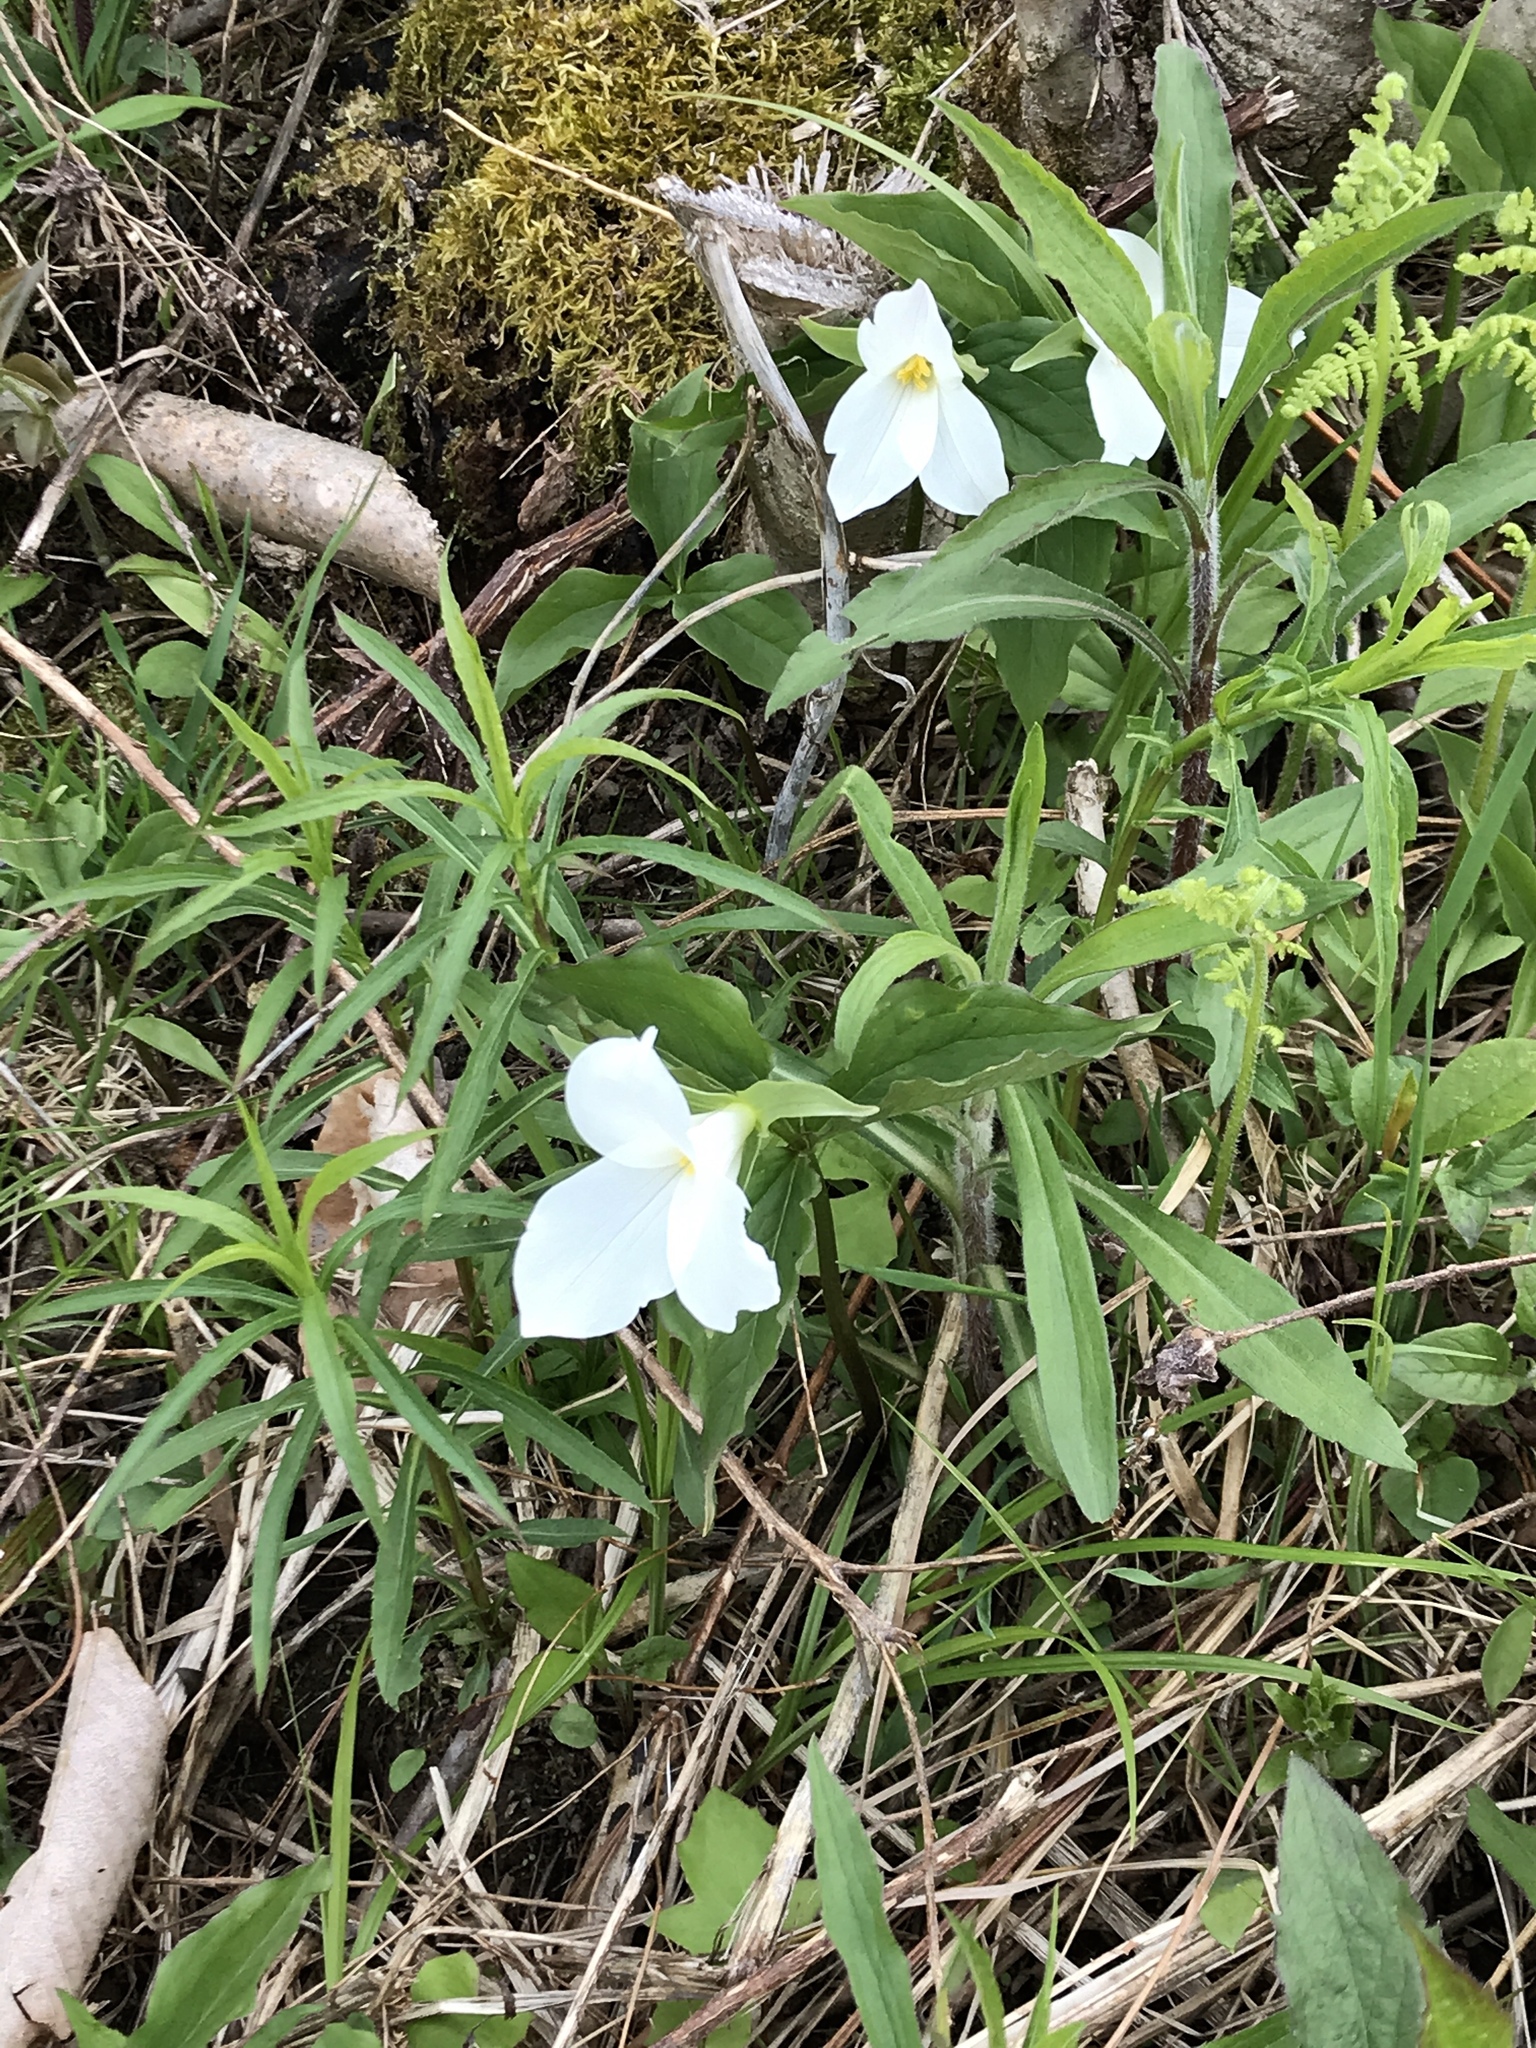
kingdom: Plantae
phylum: Tracheophyta
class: Liliopsida
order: Liliales
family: Melanthiaceae
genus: Trillium
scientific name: Trillium grandiflorum
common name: Great white trillium
